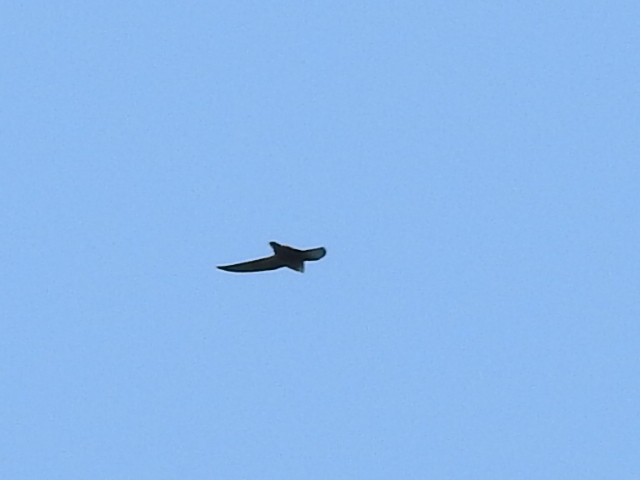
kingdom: Animalia
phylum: Chordata
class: Aves
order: Apodiformes
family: Apodidae
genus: Chaetura
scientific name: Chaetura pelagica
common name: Chimney swift
